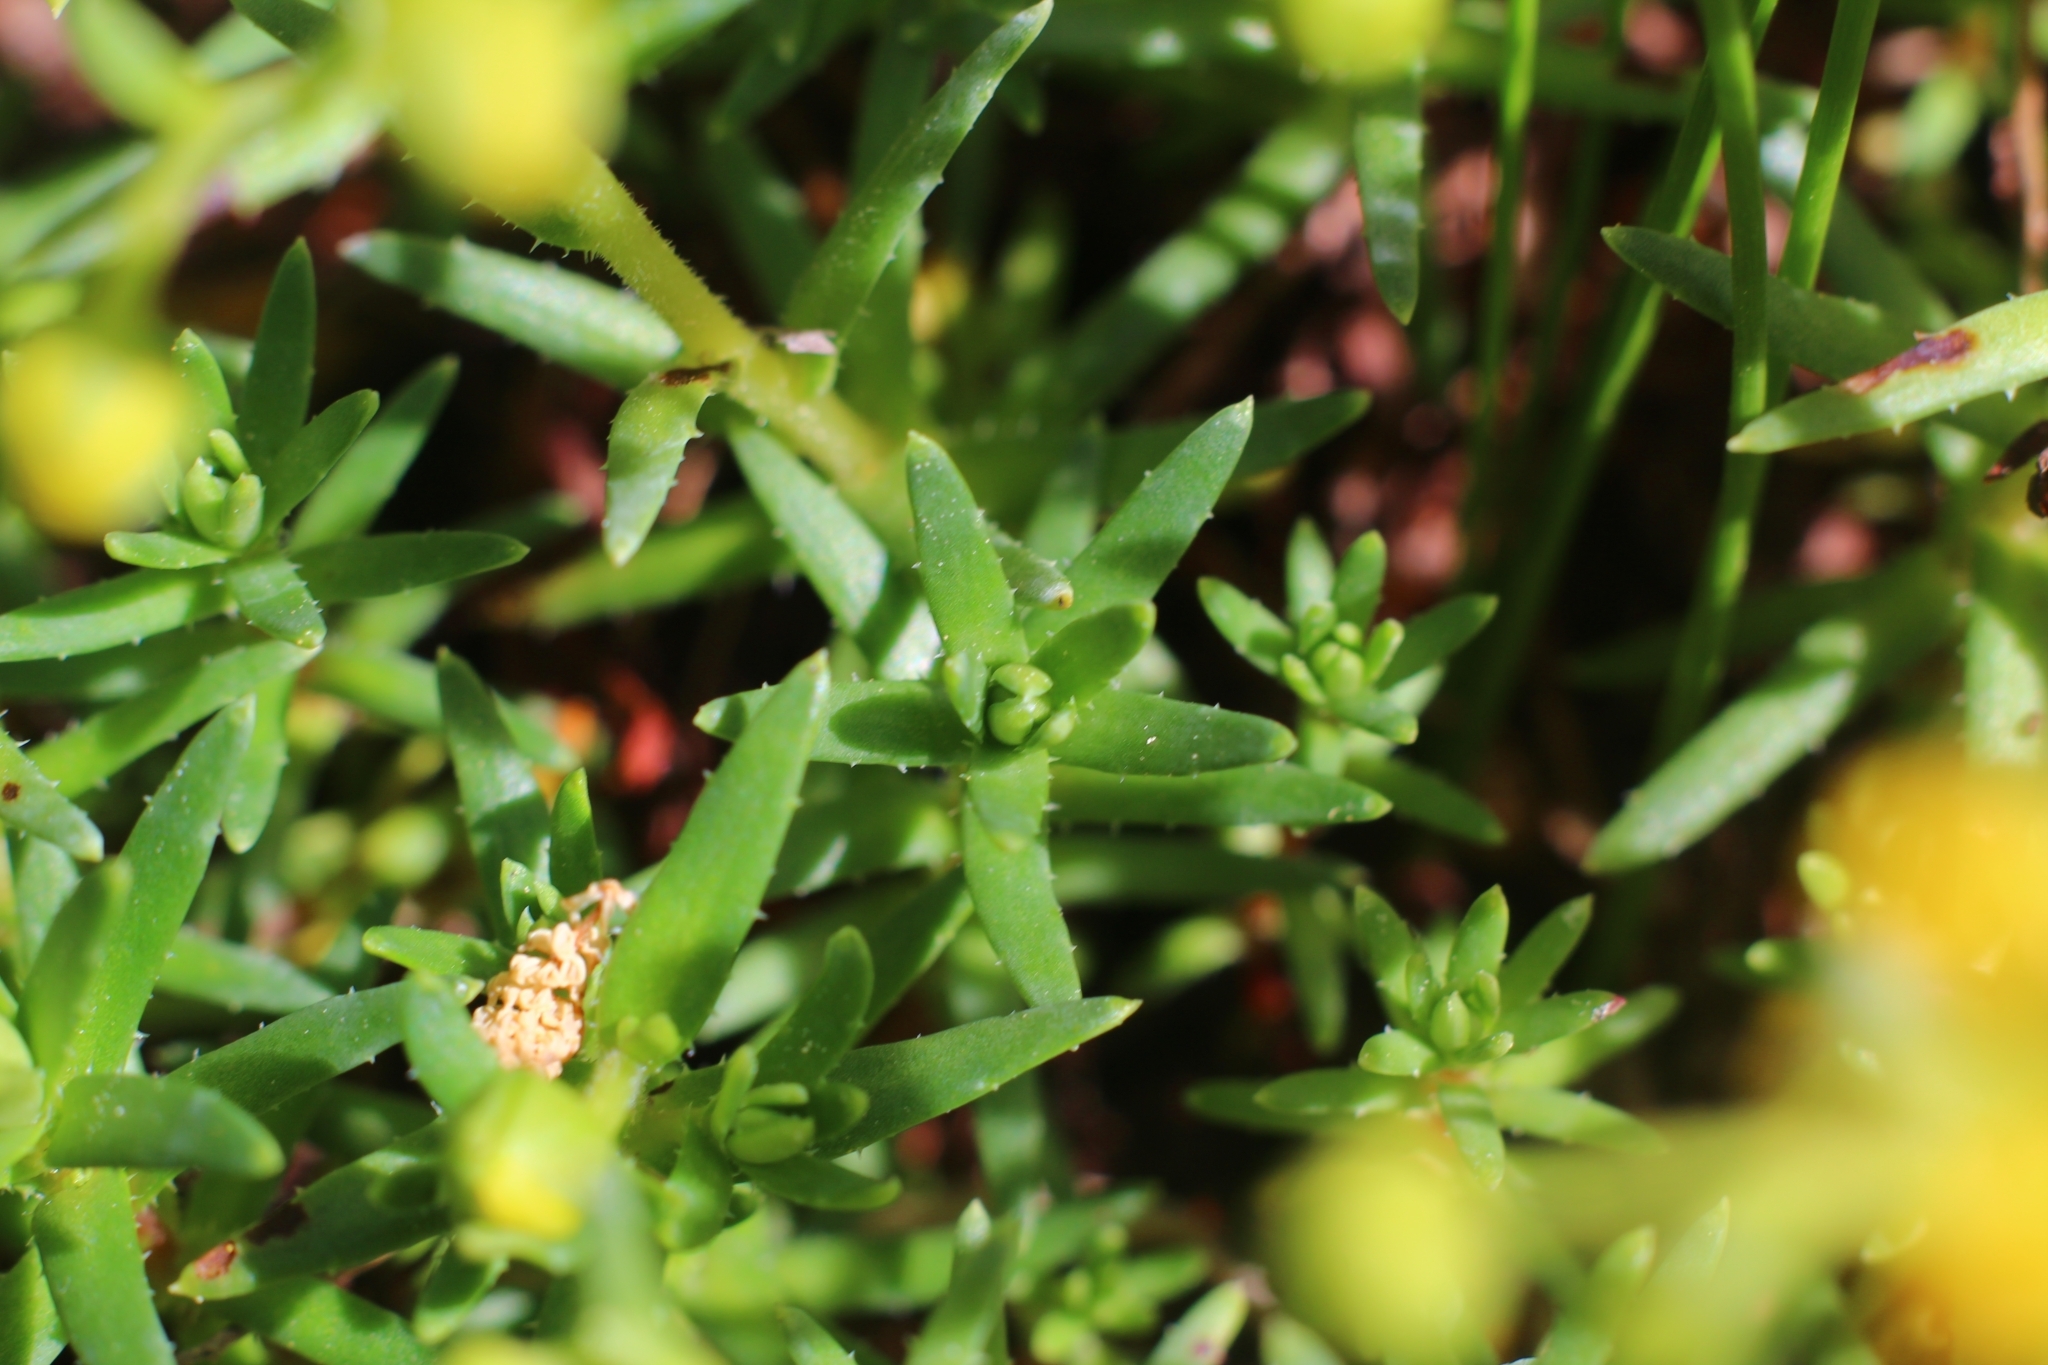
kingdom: Plantae
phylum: Tracheophyta
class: Magnoliopsida
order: Saxifragales
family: Saxifragaceae
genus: Saxifraga
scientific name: Saxifraga aizoides
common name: Yellow mountain saxifrage
